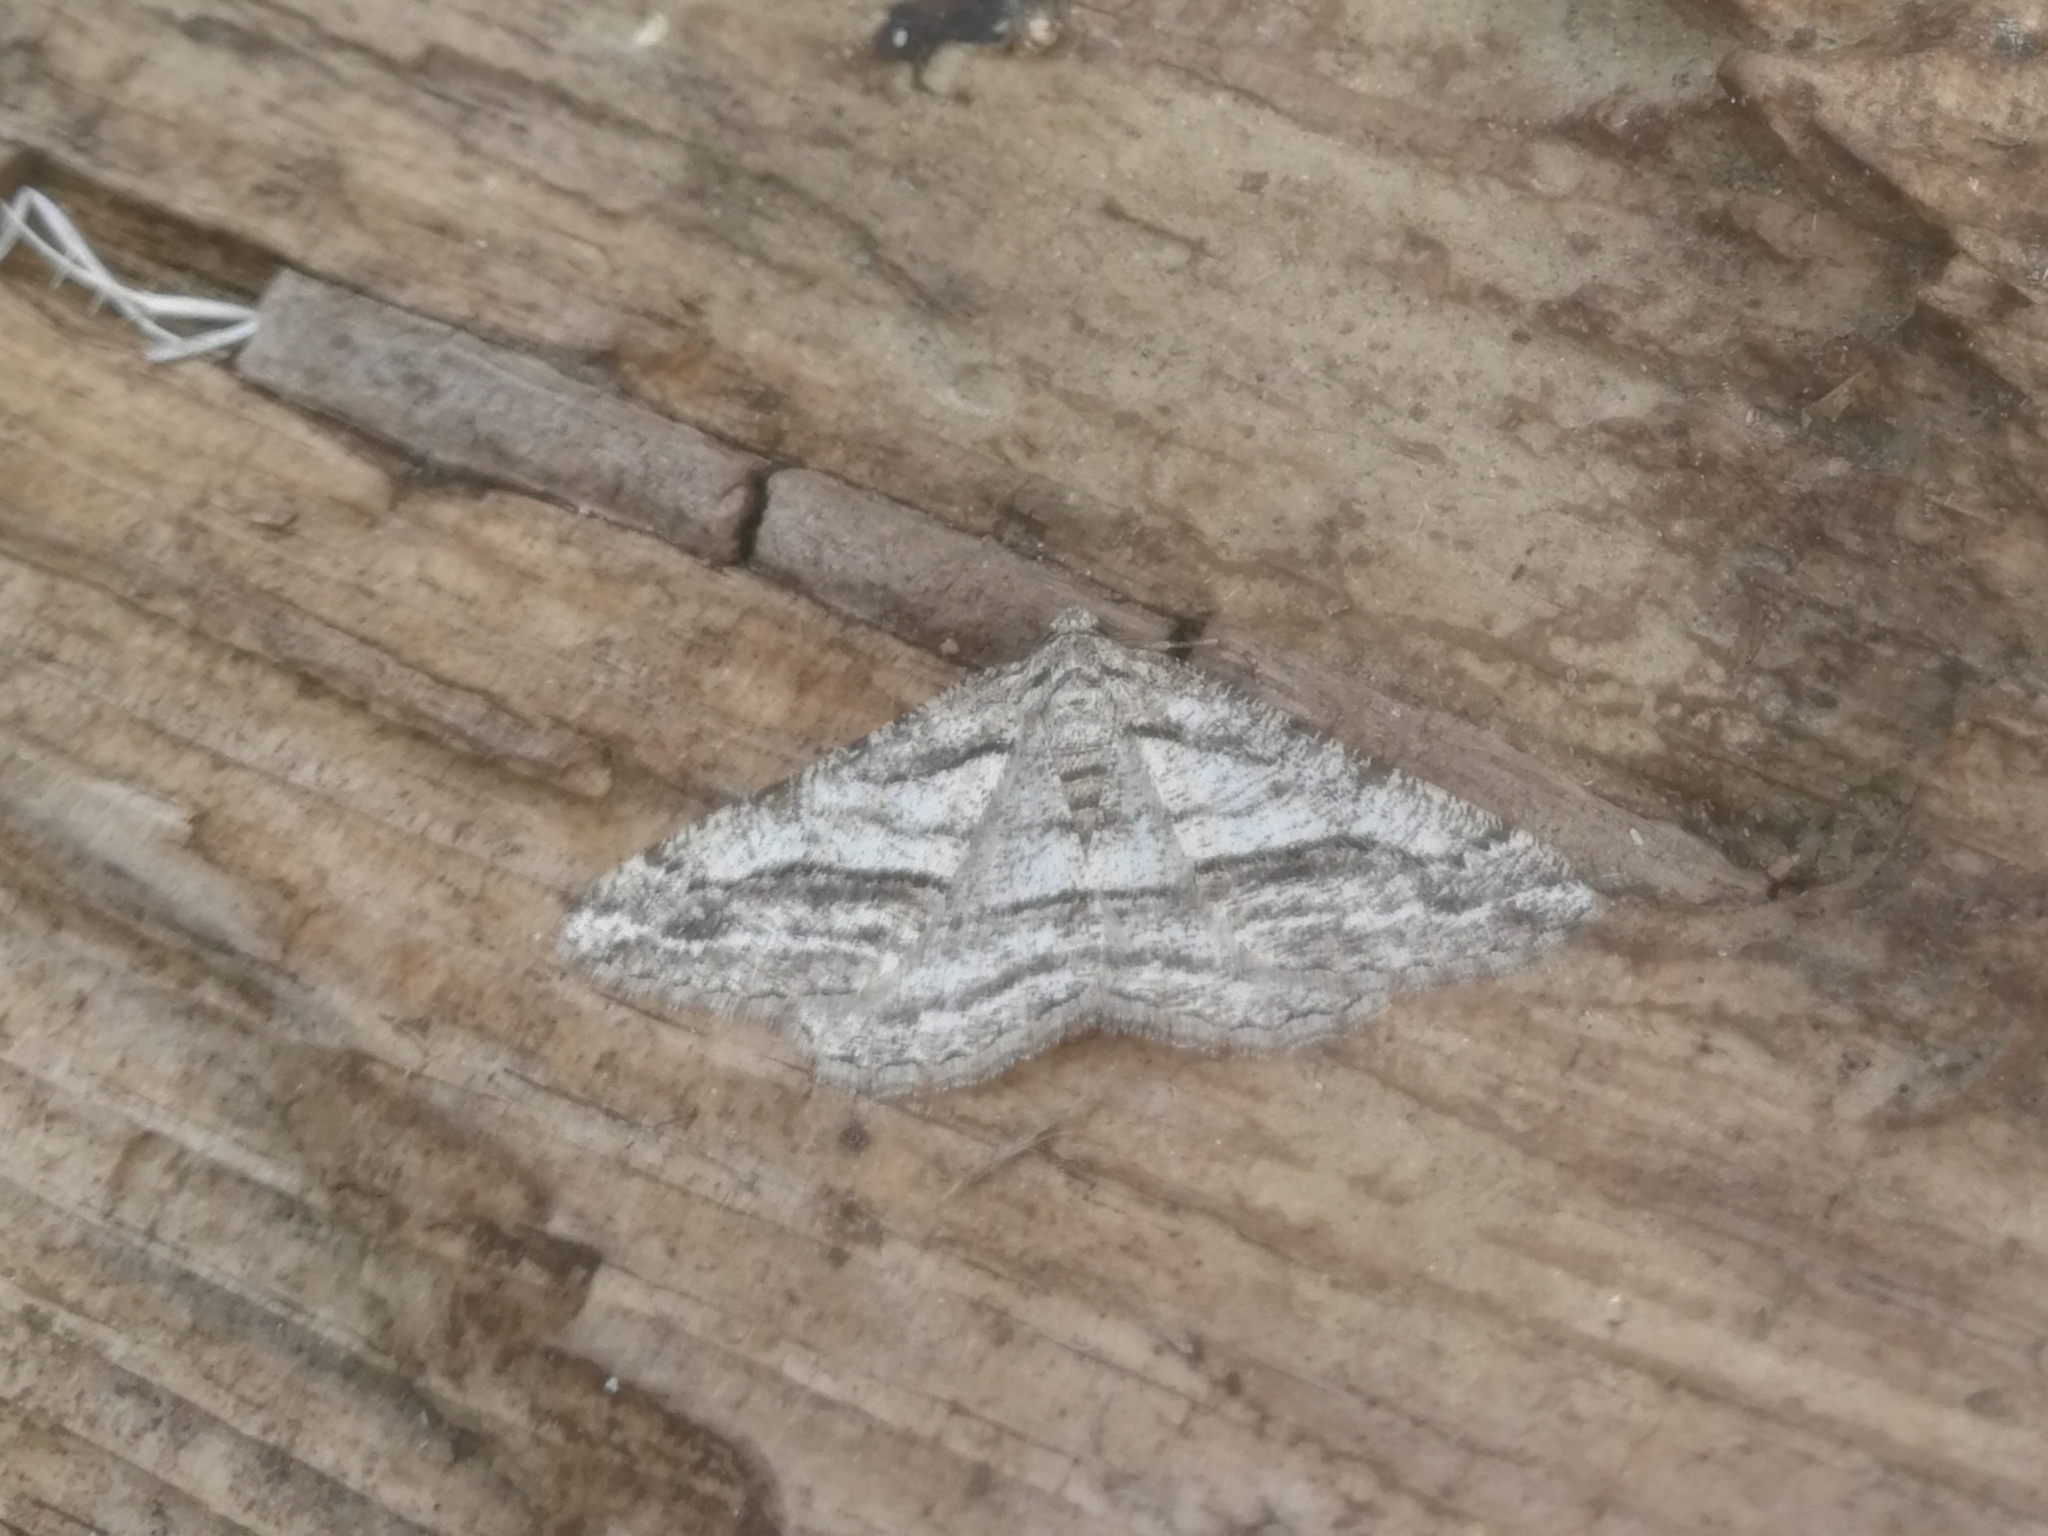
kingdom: Animalia
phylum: Arthropoda
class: Insecta
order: Lepidoptera
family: Geometridae
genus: Calamodes
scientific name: Calamodes occitanaria
